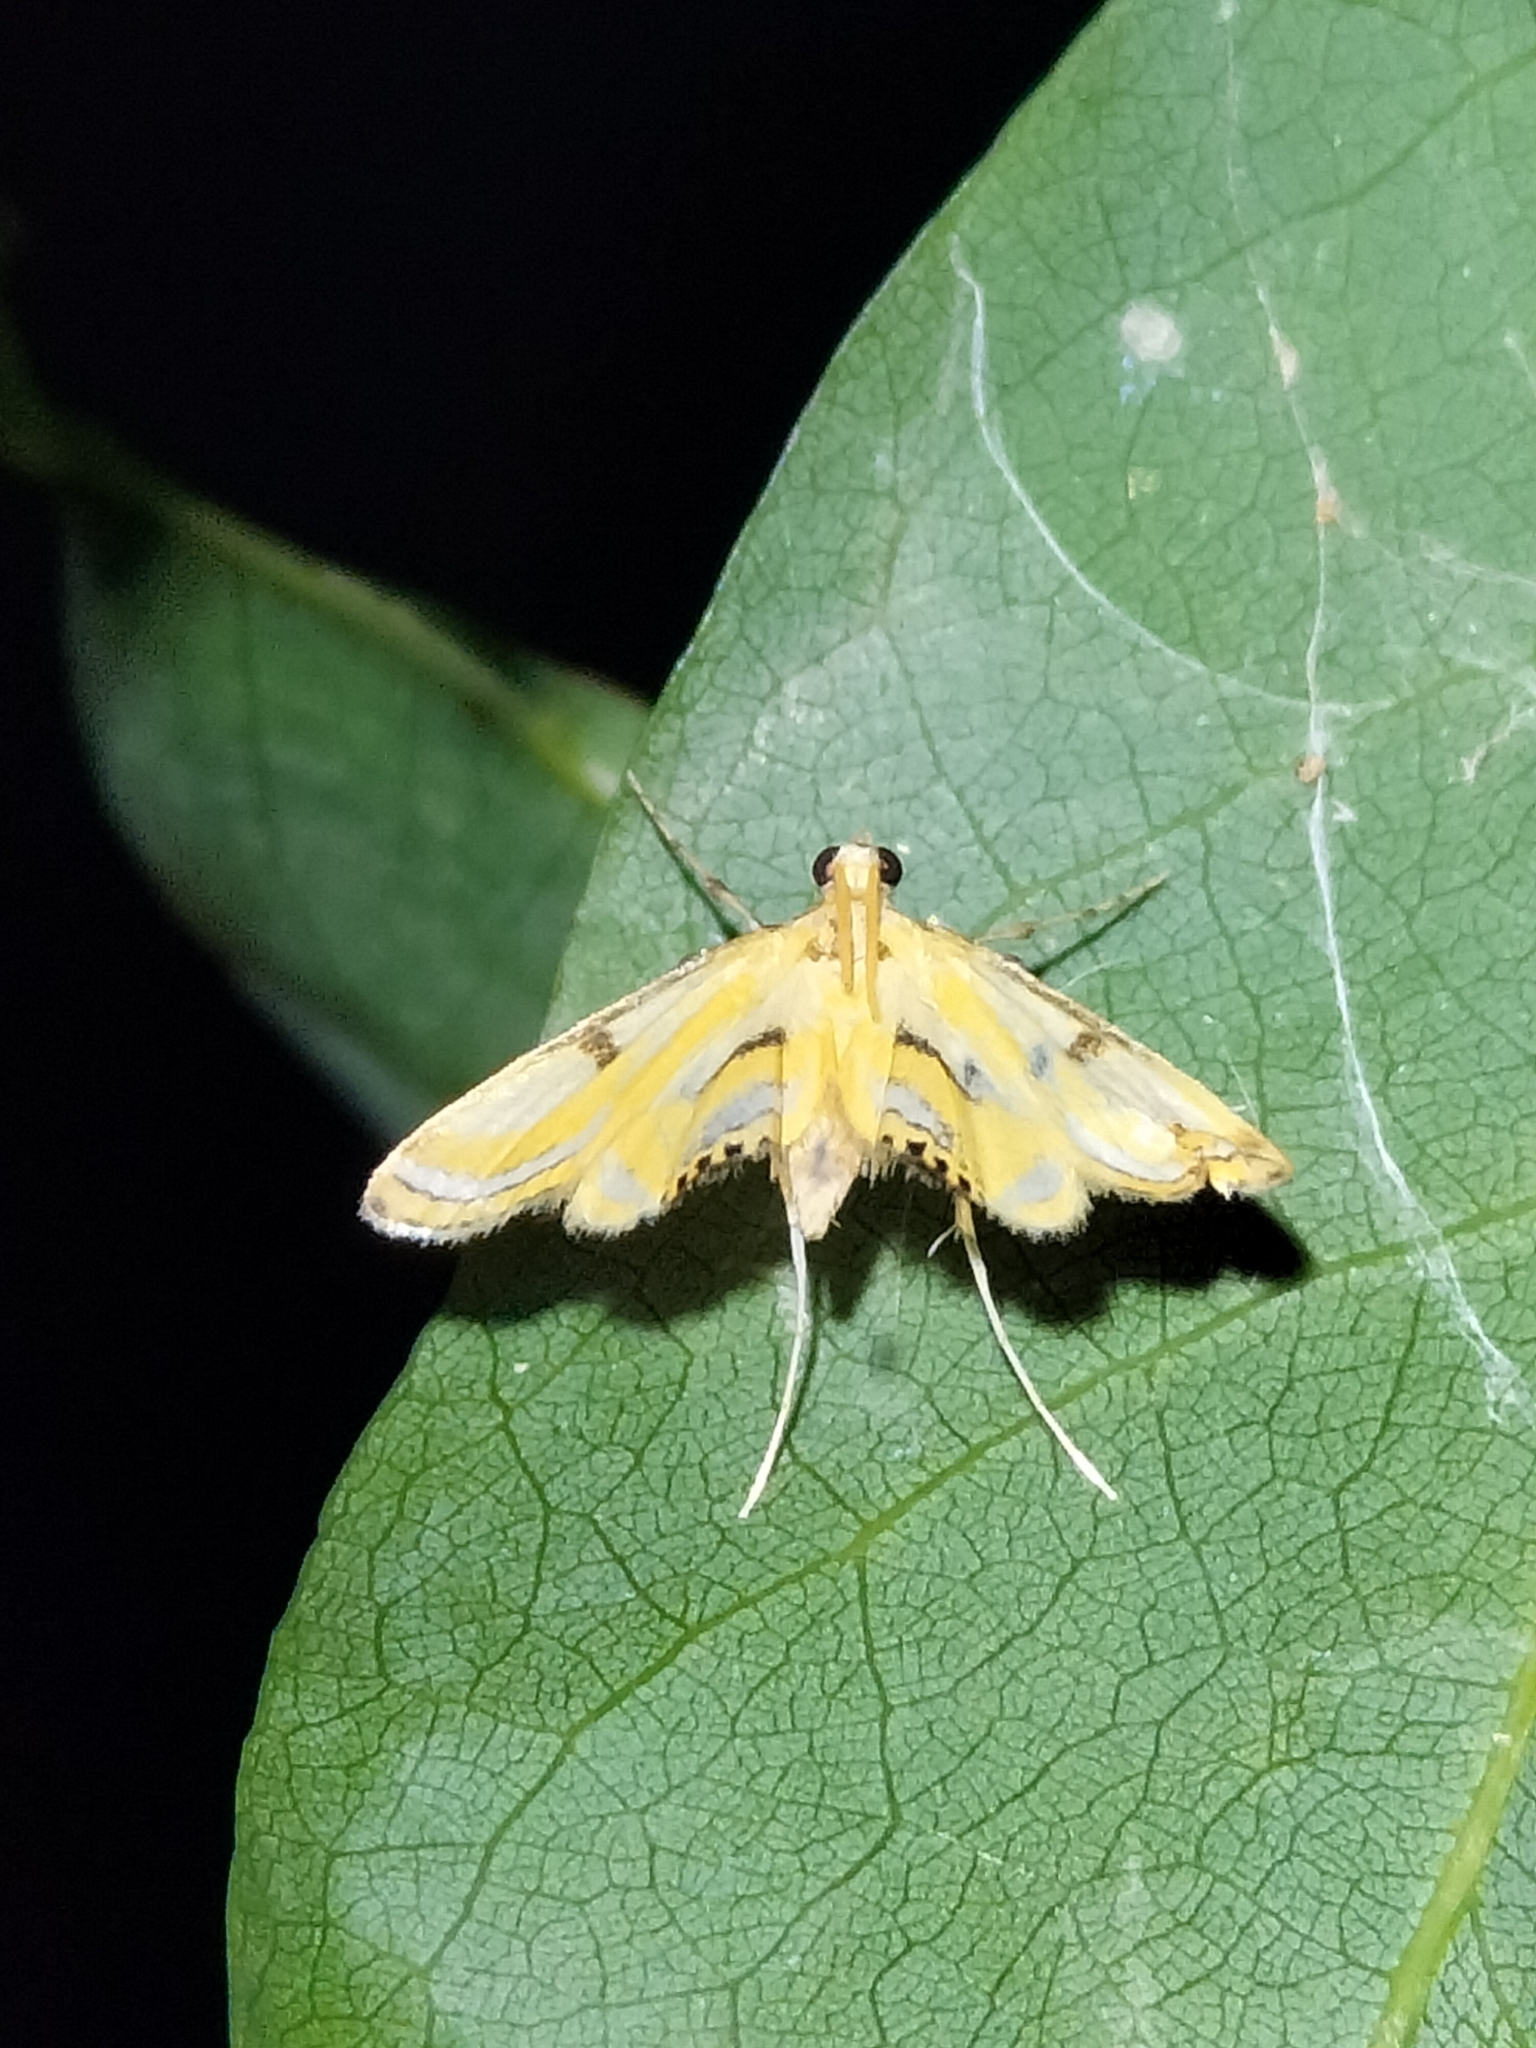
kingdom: Animalia
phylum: Arthropoda
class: Insecta
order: Lepidoptera
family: Crambidae
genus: Tetrernia
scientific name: Tetrernia teminitis
